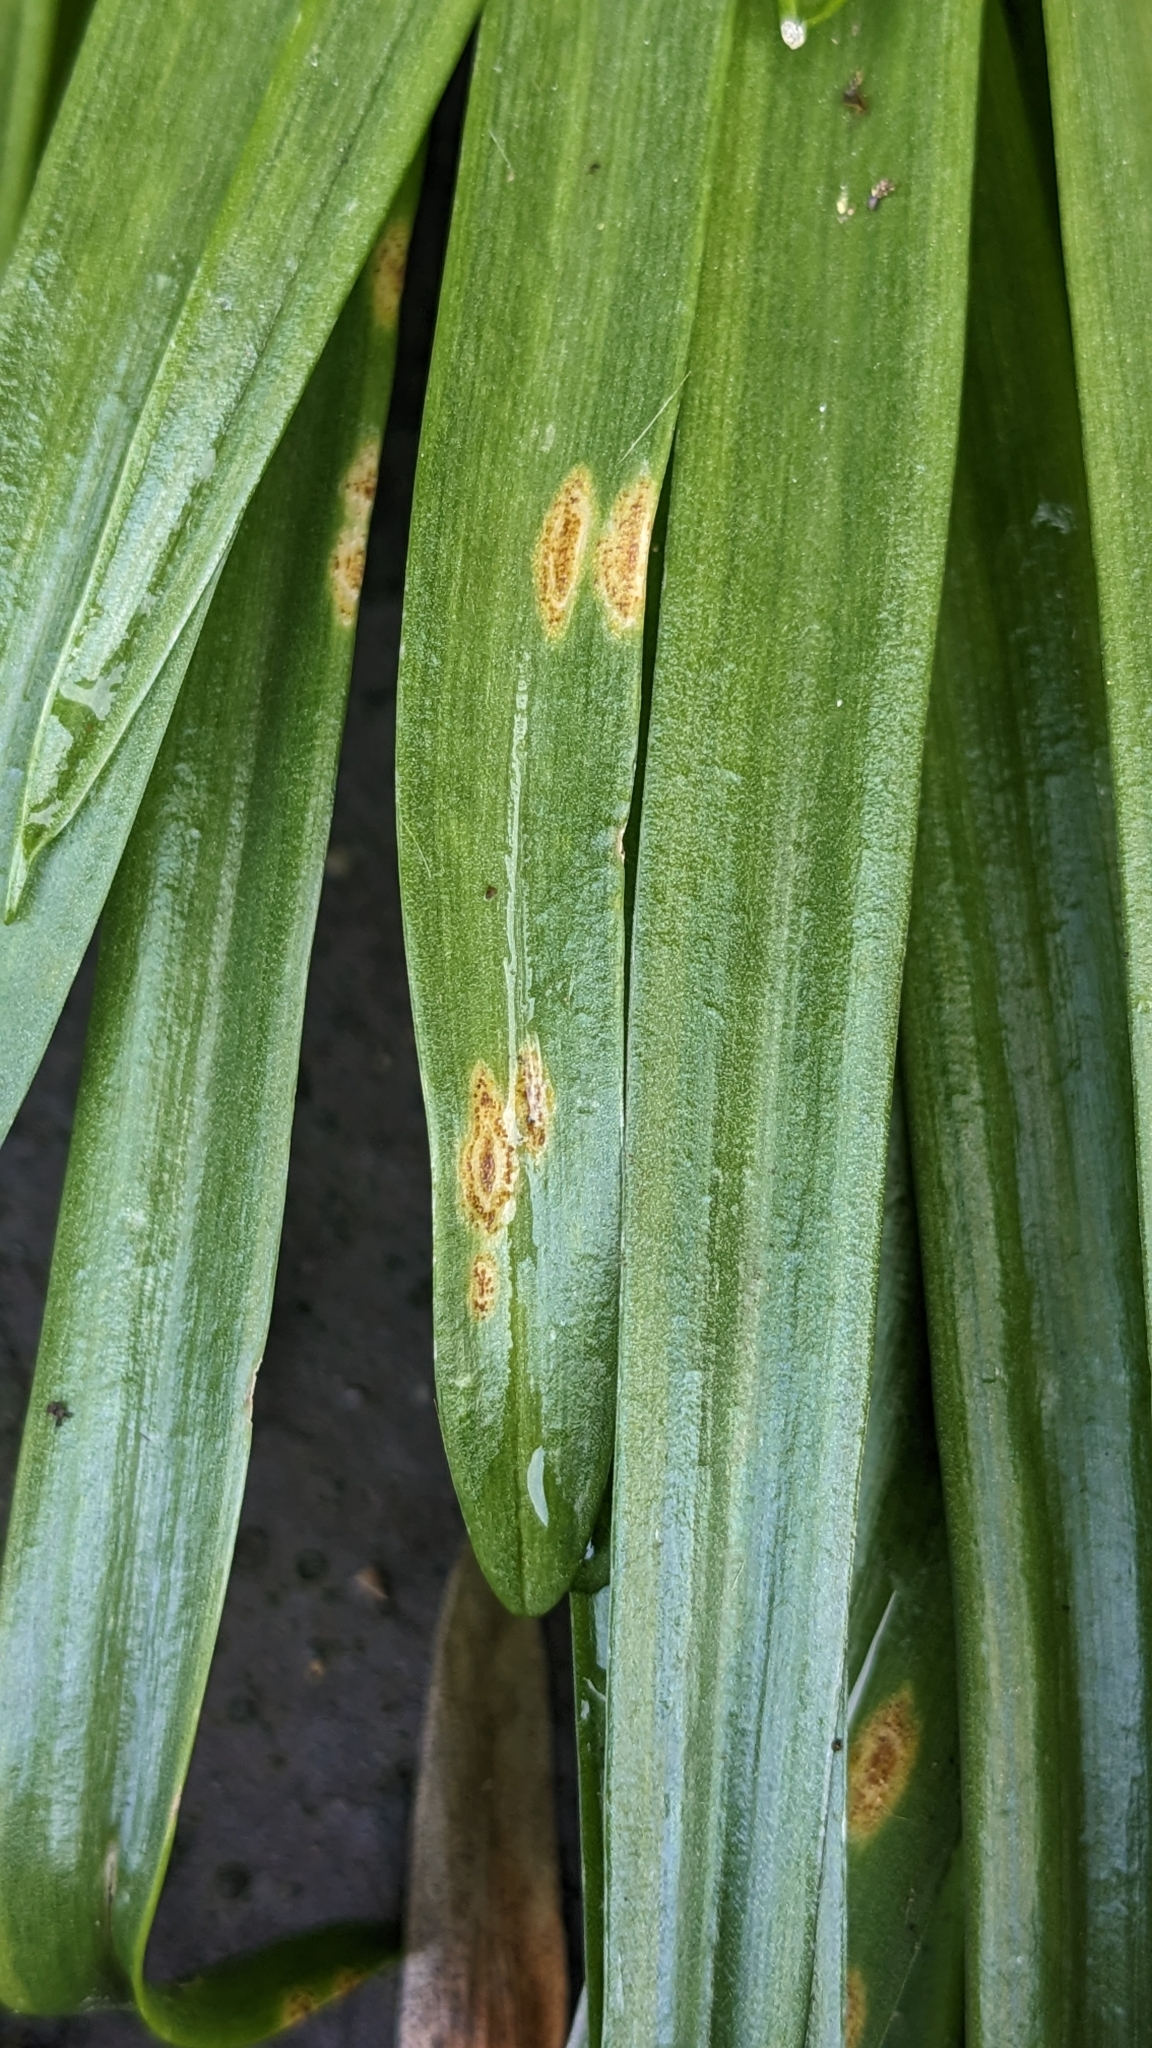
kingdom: Fungi
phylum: Basidiomycota
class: Pucciniomycetes
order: Pucciniales
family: Pucciniaceae
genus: Uromyces
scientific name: Uromyces hyacinthi
